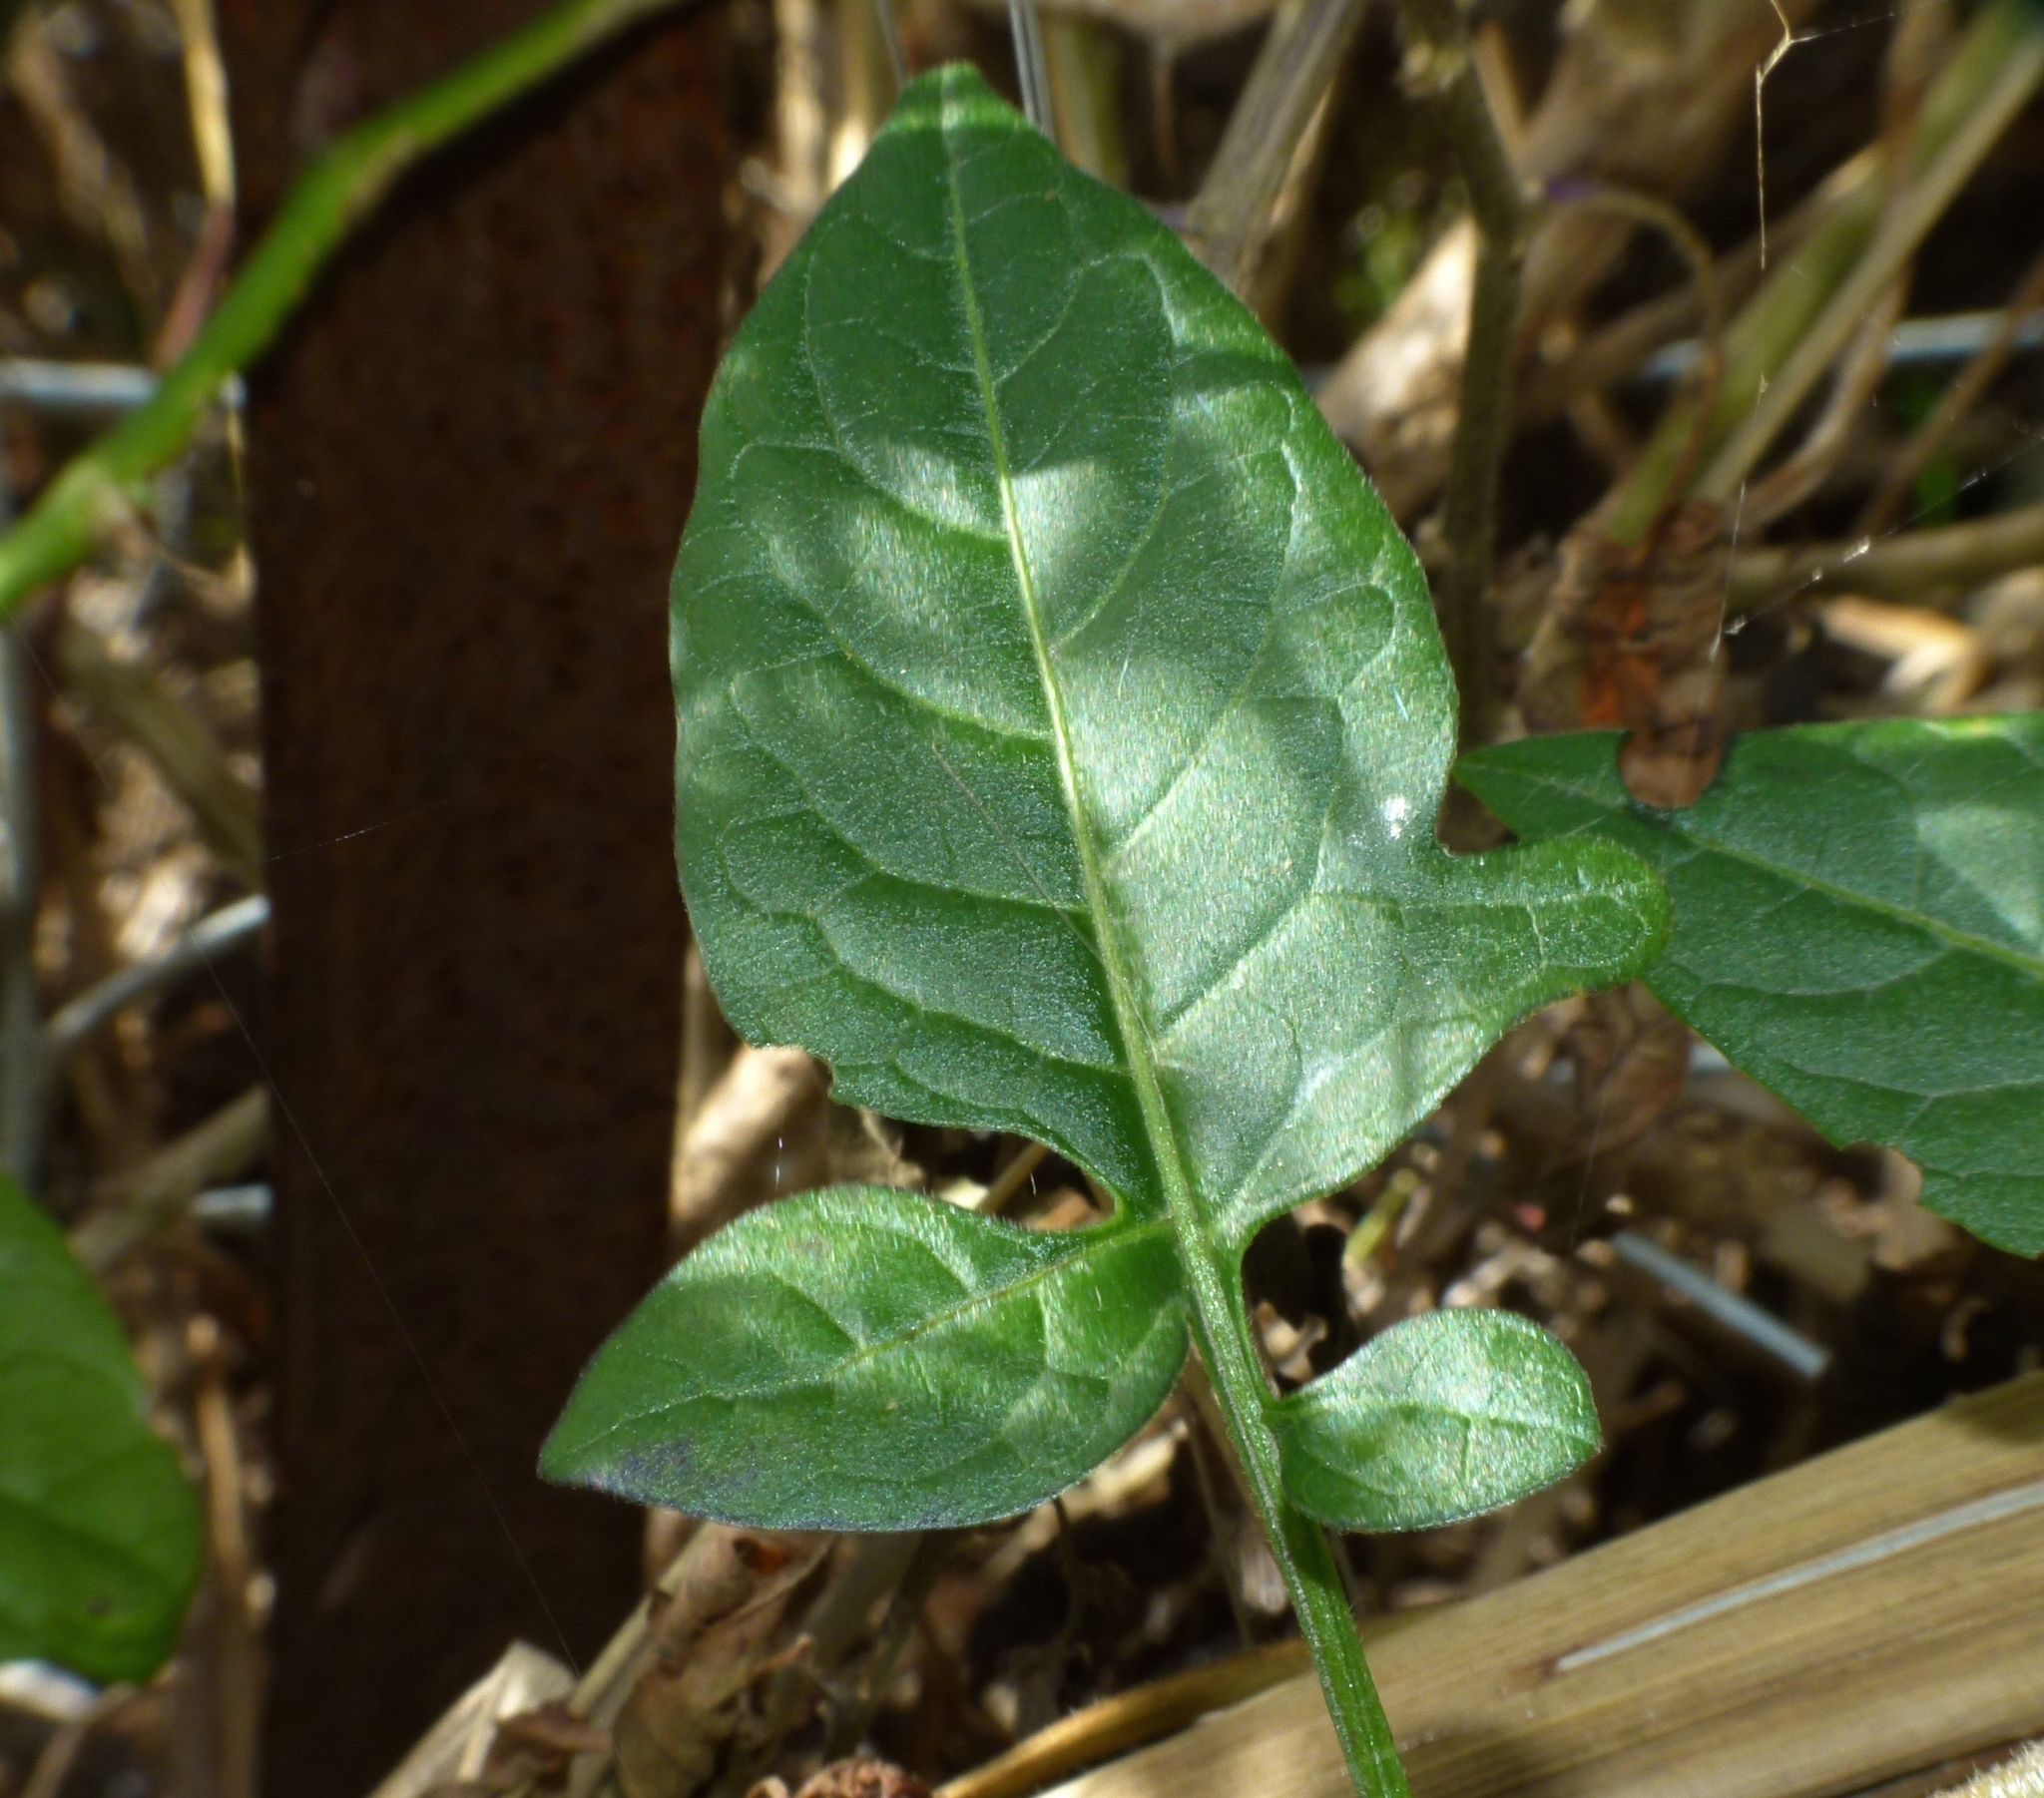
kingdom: Plantae
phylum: Tracheophyta
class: Magnoliopsida
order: Solanales
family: Solanaceae
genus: Solanum
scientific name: Solanum dulcamara
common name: Climbing nightshade
